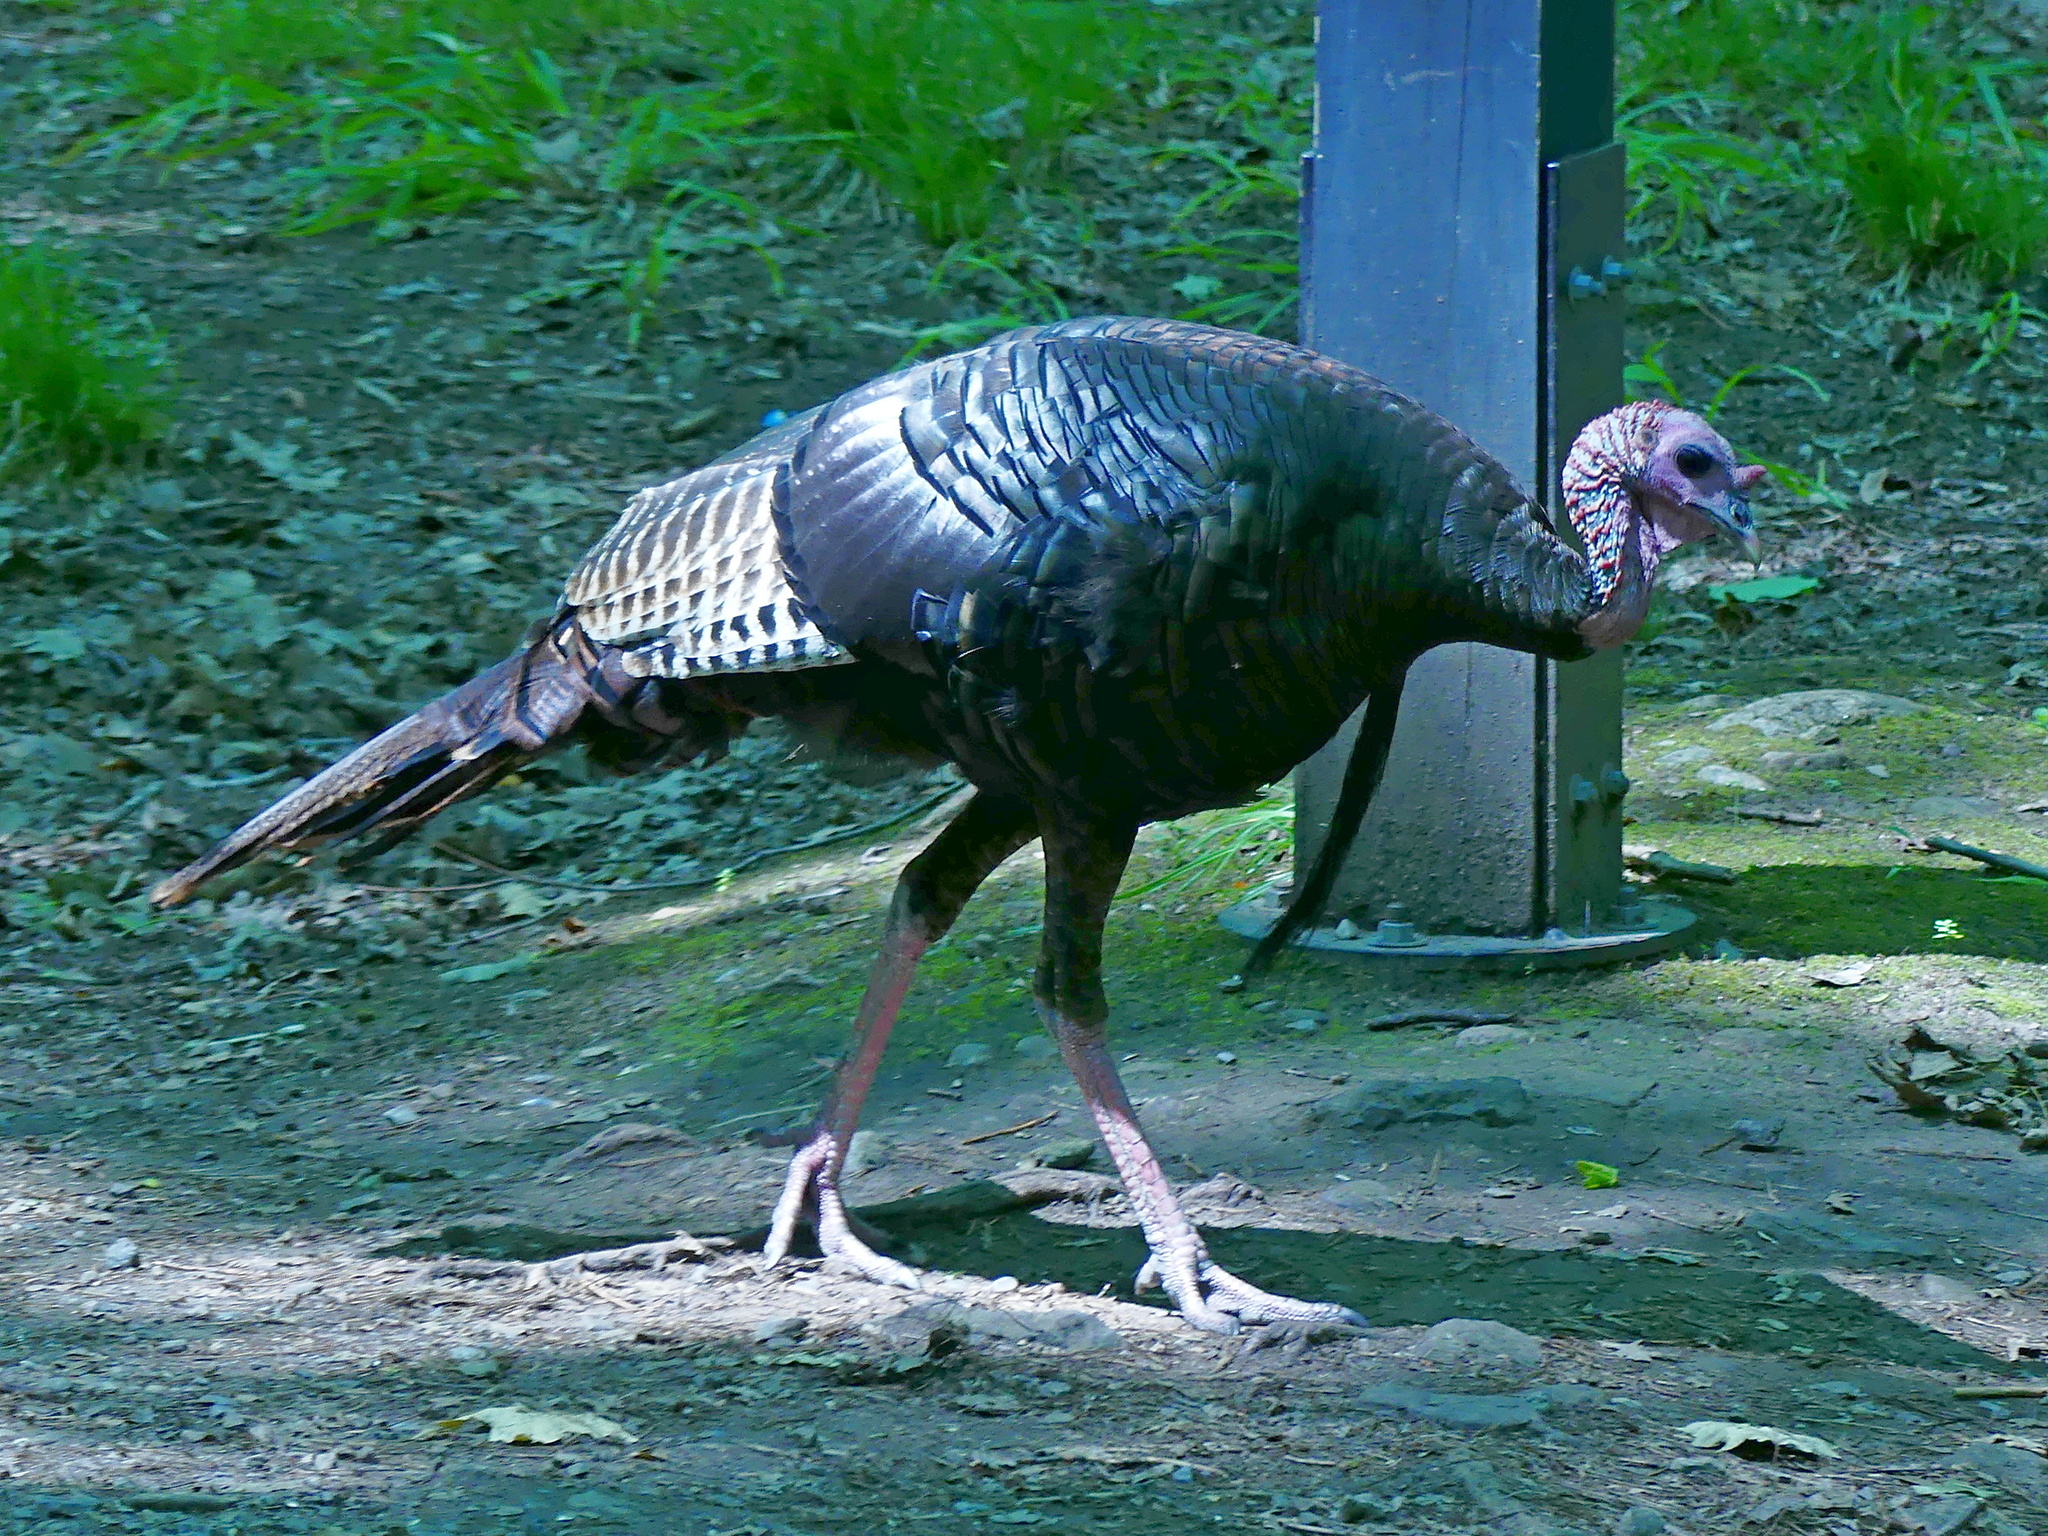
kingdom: Animalia
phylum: Chordata
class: Aves
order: Galliformes
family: Phasianidae
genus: Meleagris
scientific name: Meleagris gallopavo
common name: Wild turkey
